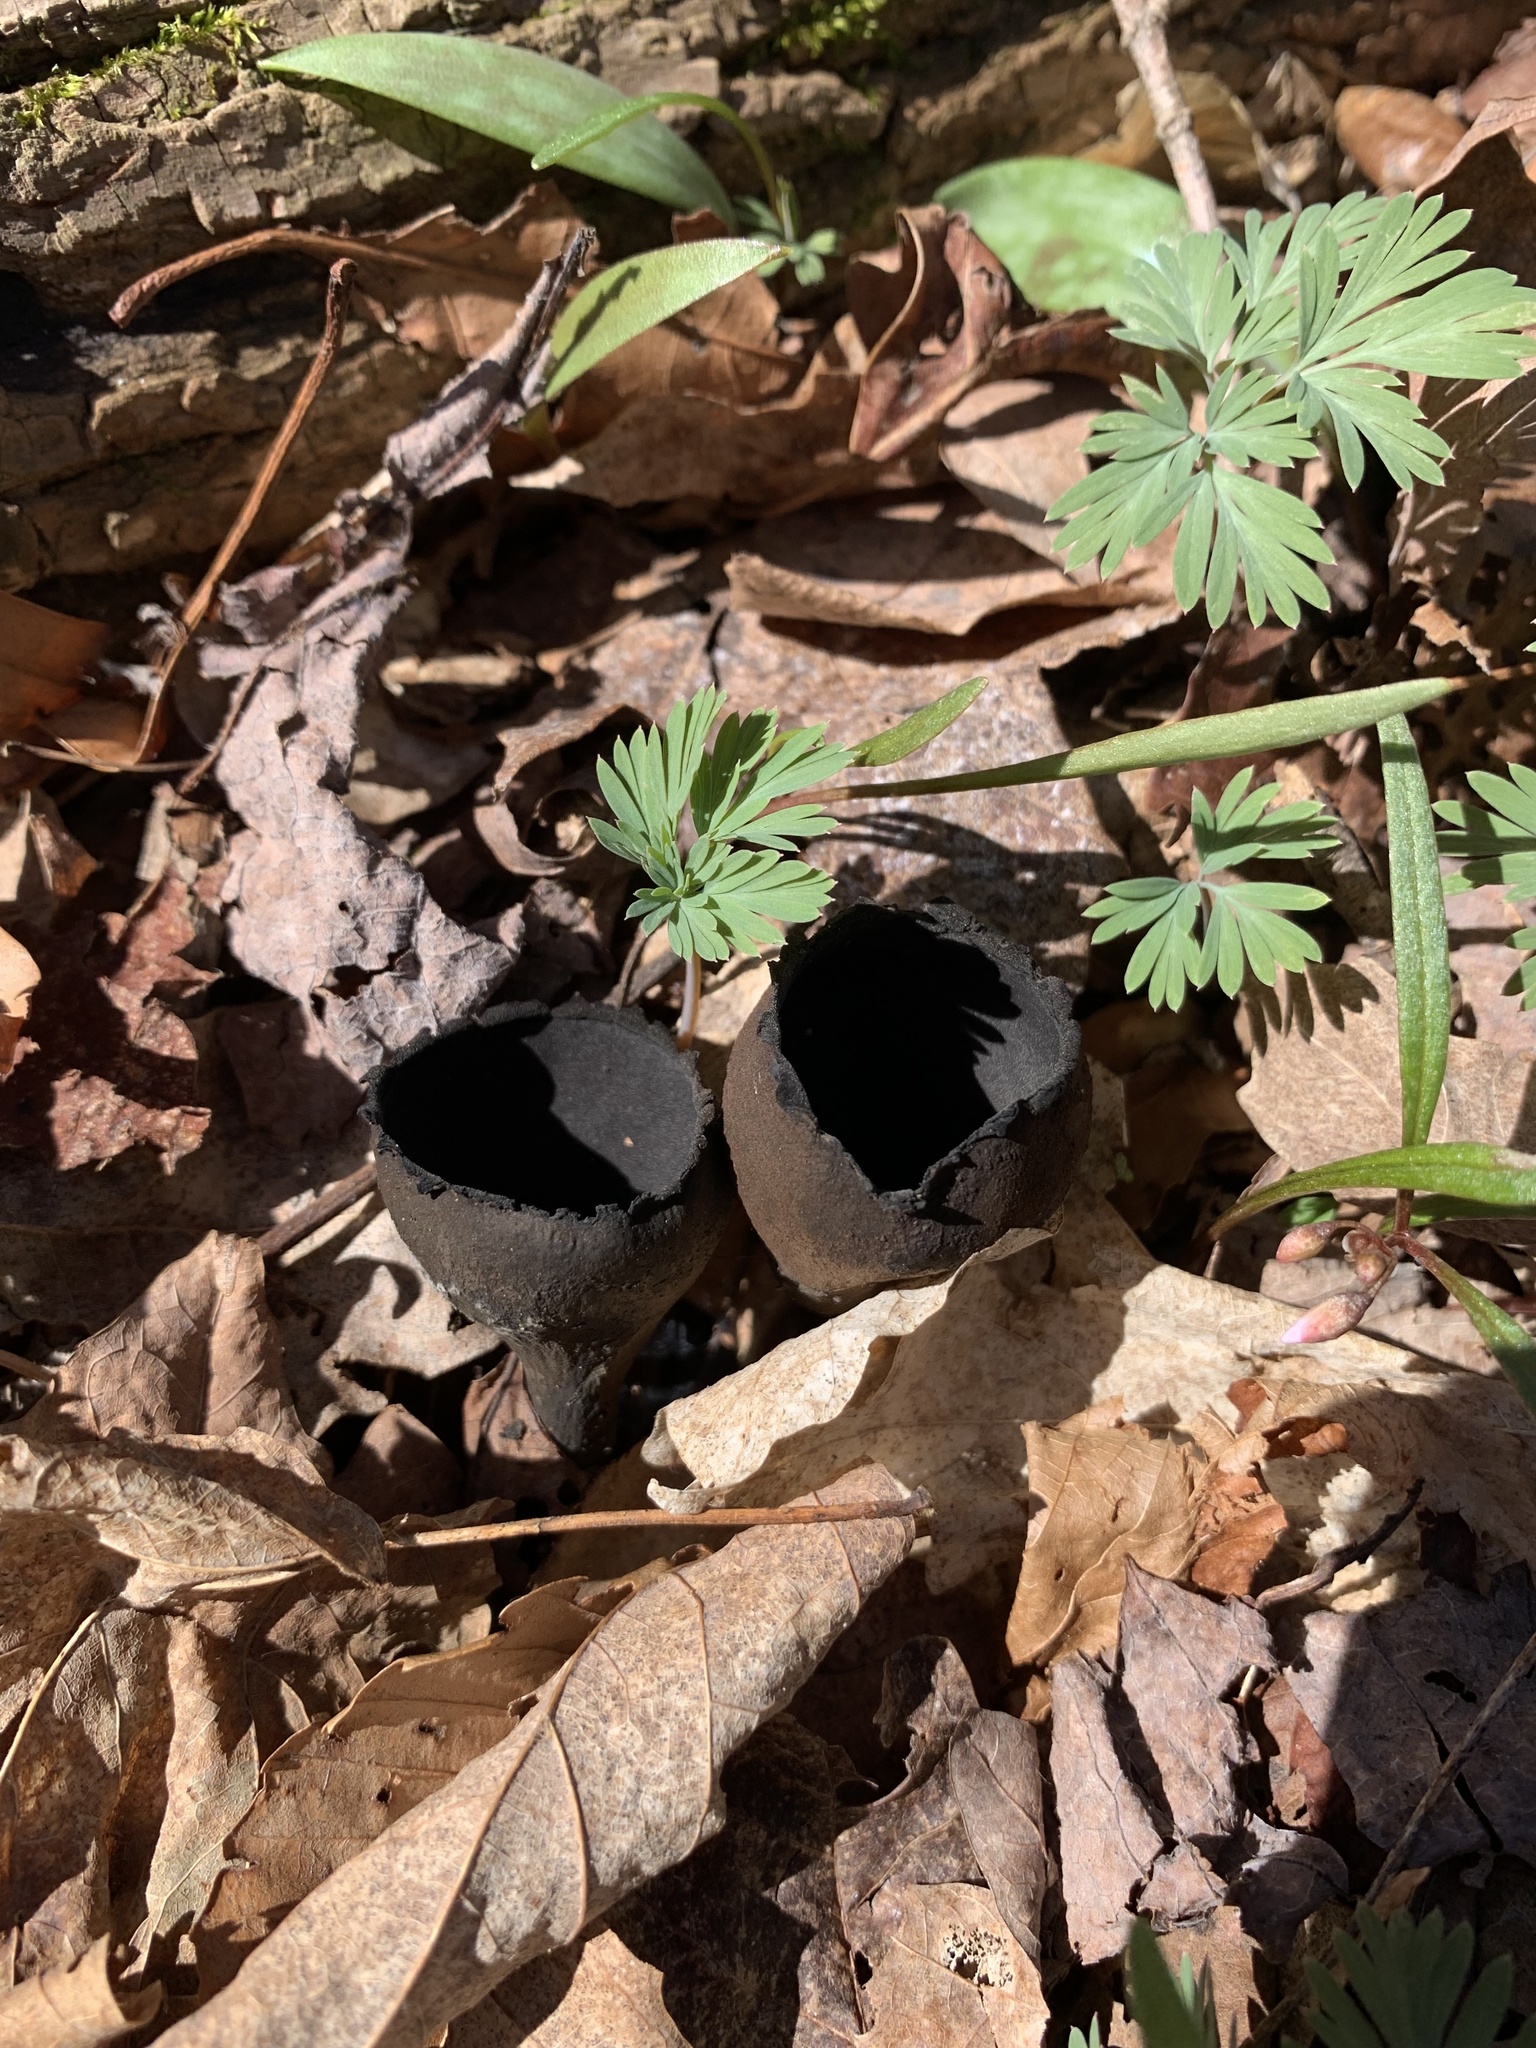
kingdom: Fungi
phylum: Ascomycota
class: Pezizomycetes
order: Pezizales
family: Sarcosomataceae
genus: Urnula
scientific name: Urnula craterium
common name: Devil's urn
